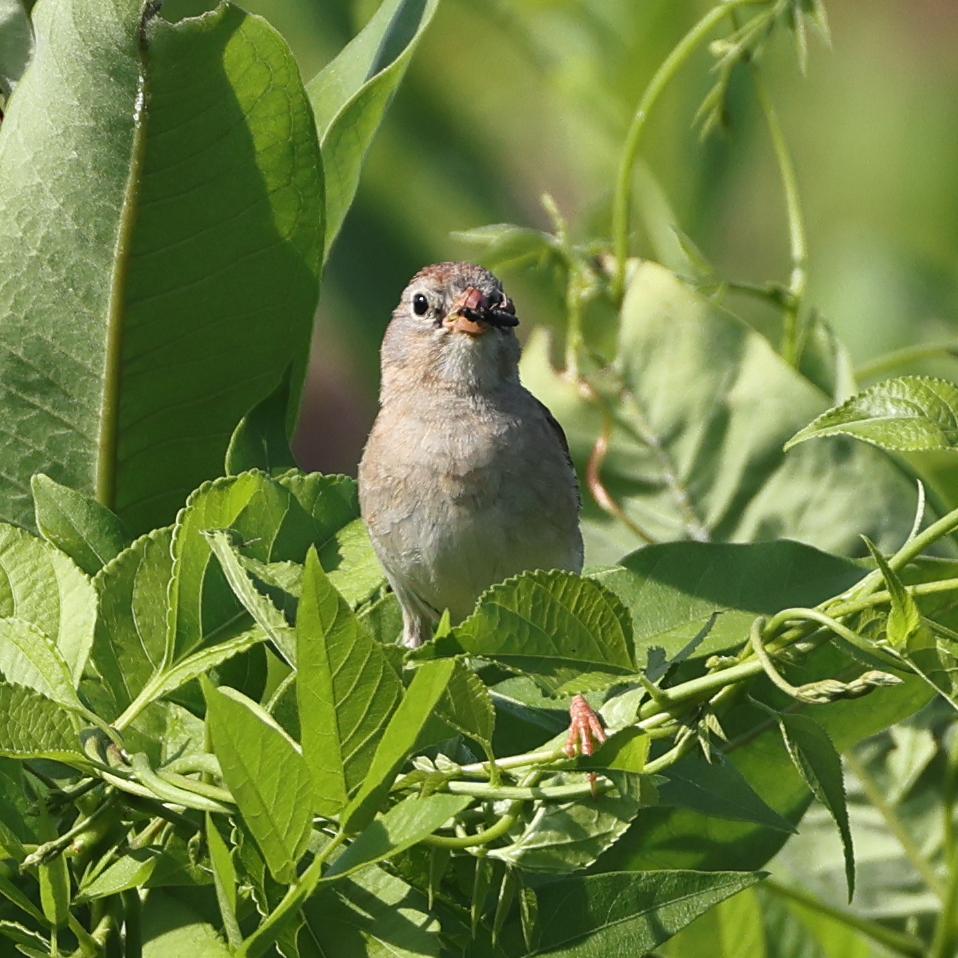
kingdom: Animalia
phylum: Chordata
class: Aves
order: Passeriformes
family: Passerellidae
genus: Spizella
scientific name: Spizella pusilla
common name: Field sparrow
